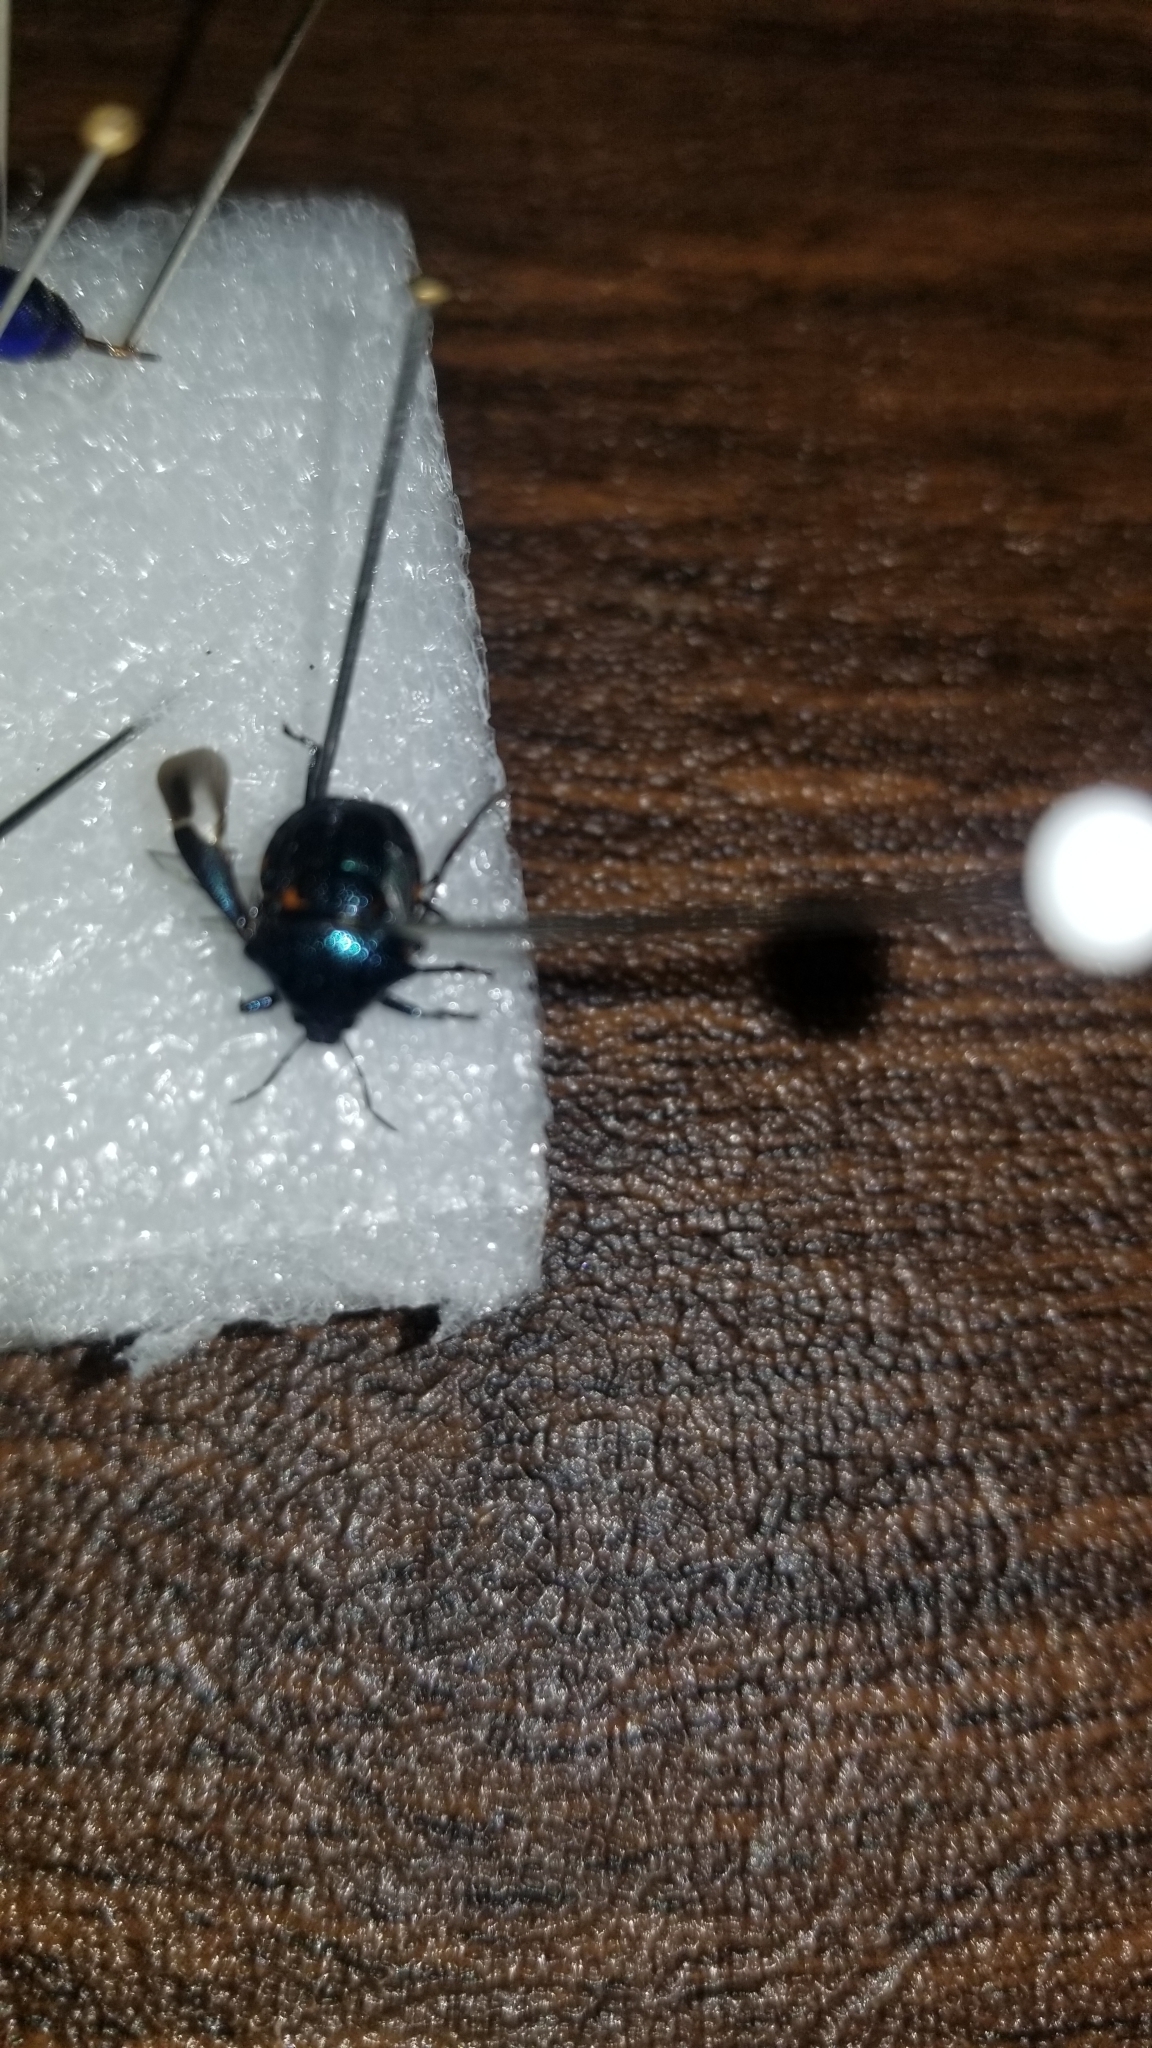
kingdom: Animalia
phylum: Arthropoda
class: Insecta
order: Hemiptera
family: Pentatomidae
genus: Stiretrus
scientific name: Stiretrus anchorago
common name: Anchor stink bug
